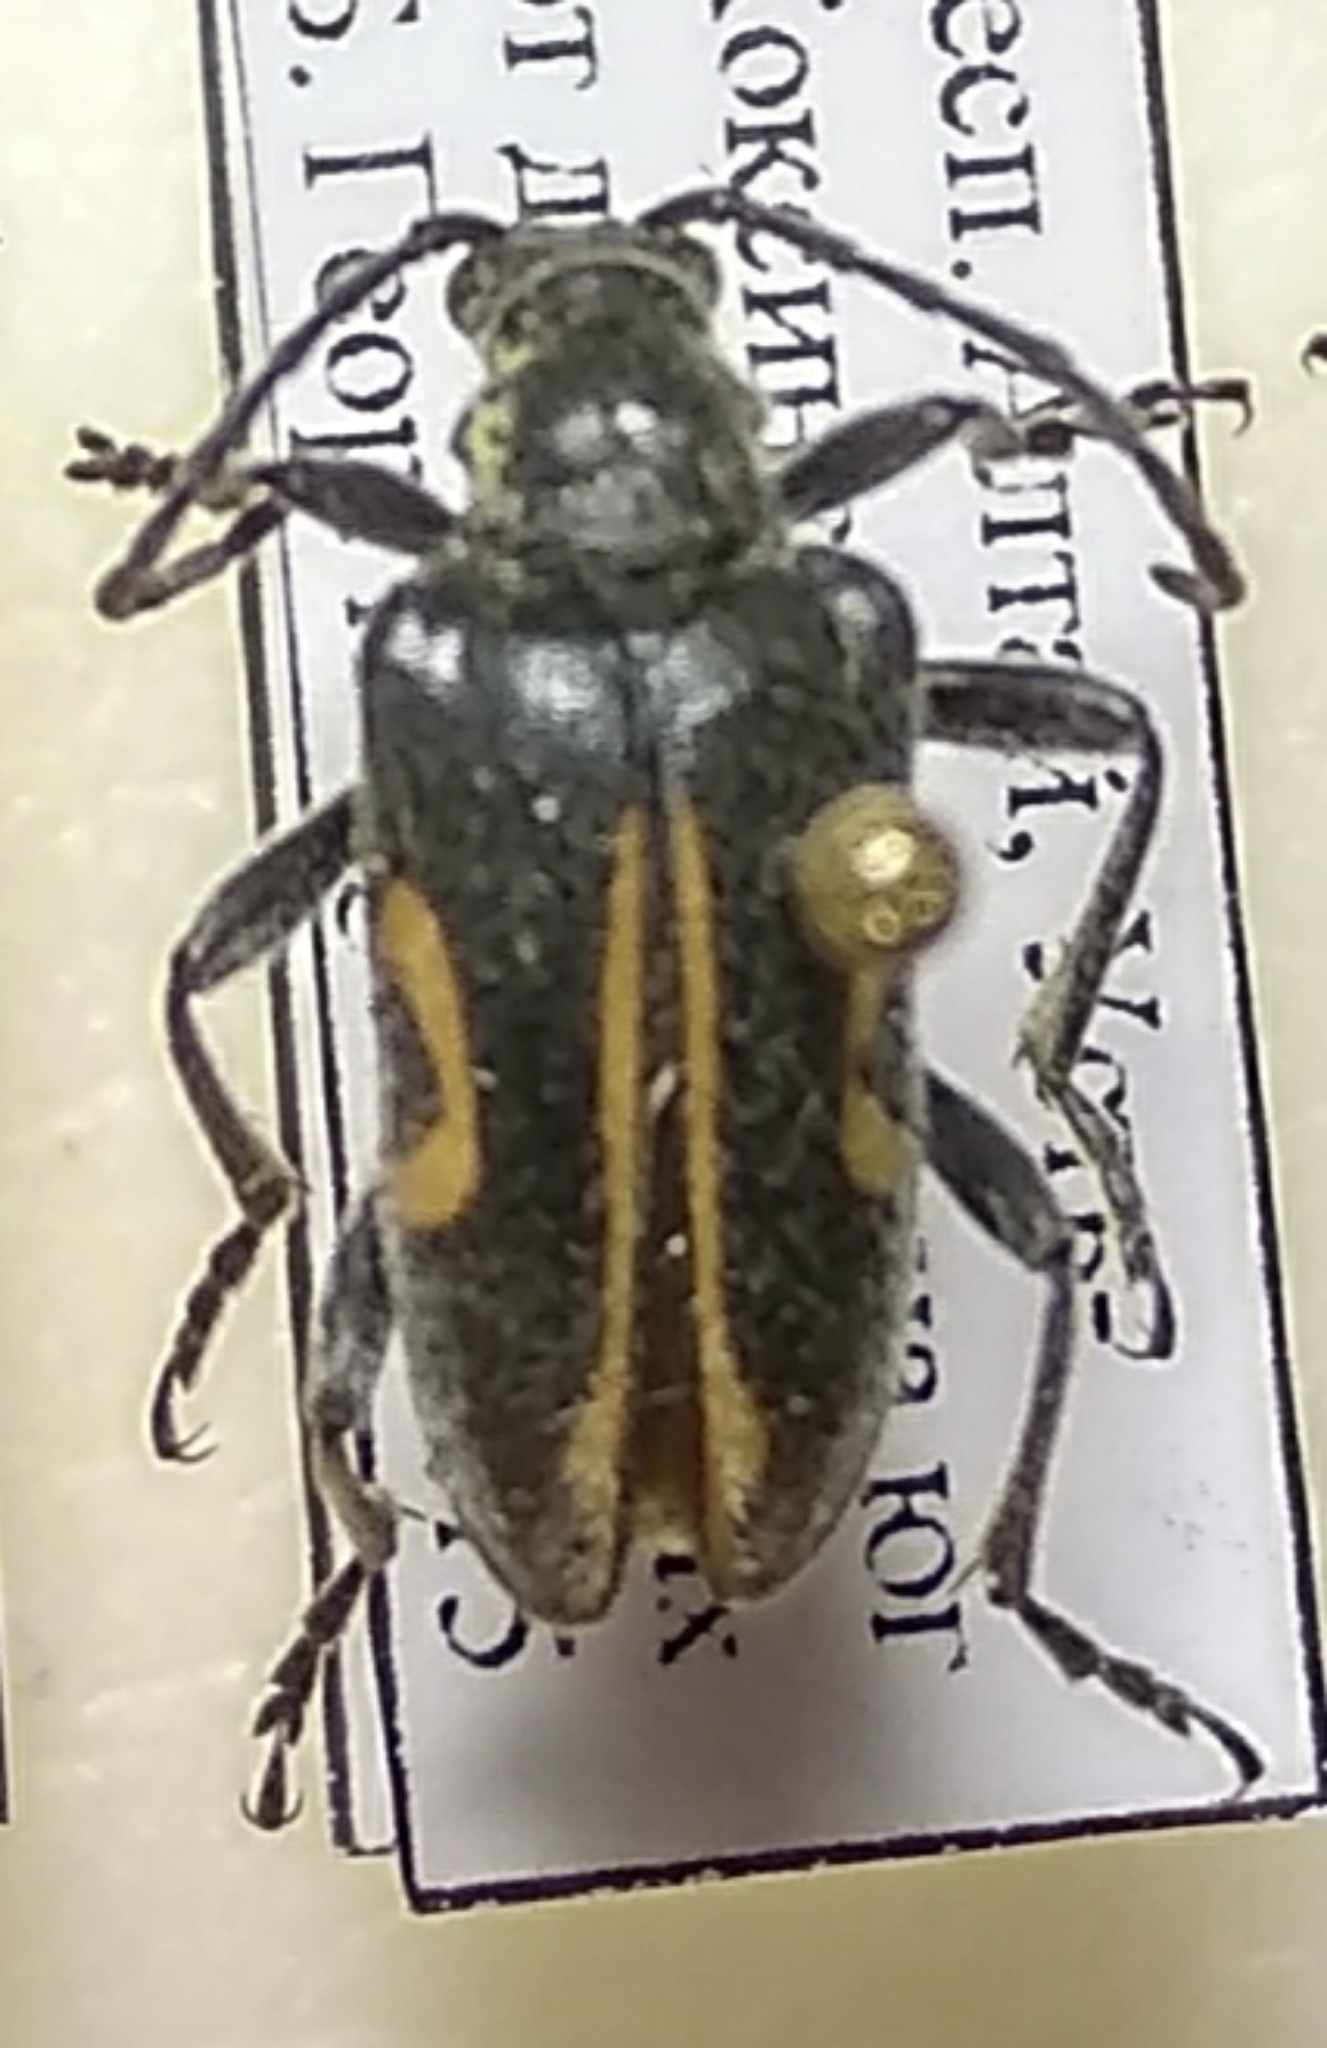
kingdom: Animalia
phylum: Arthropoda
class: Insecta
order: Coleoptera
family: Cerambycidae
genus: Brachyta
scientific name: Brachyta interrogationis
